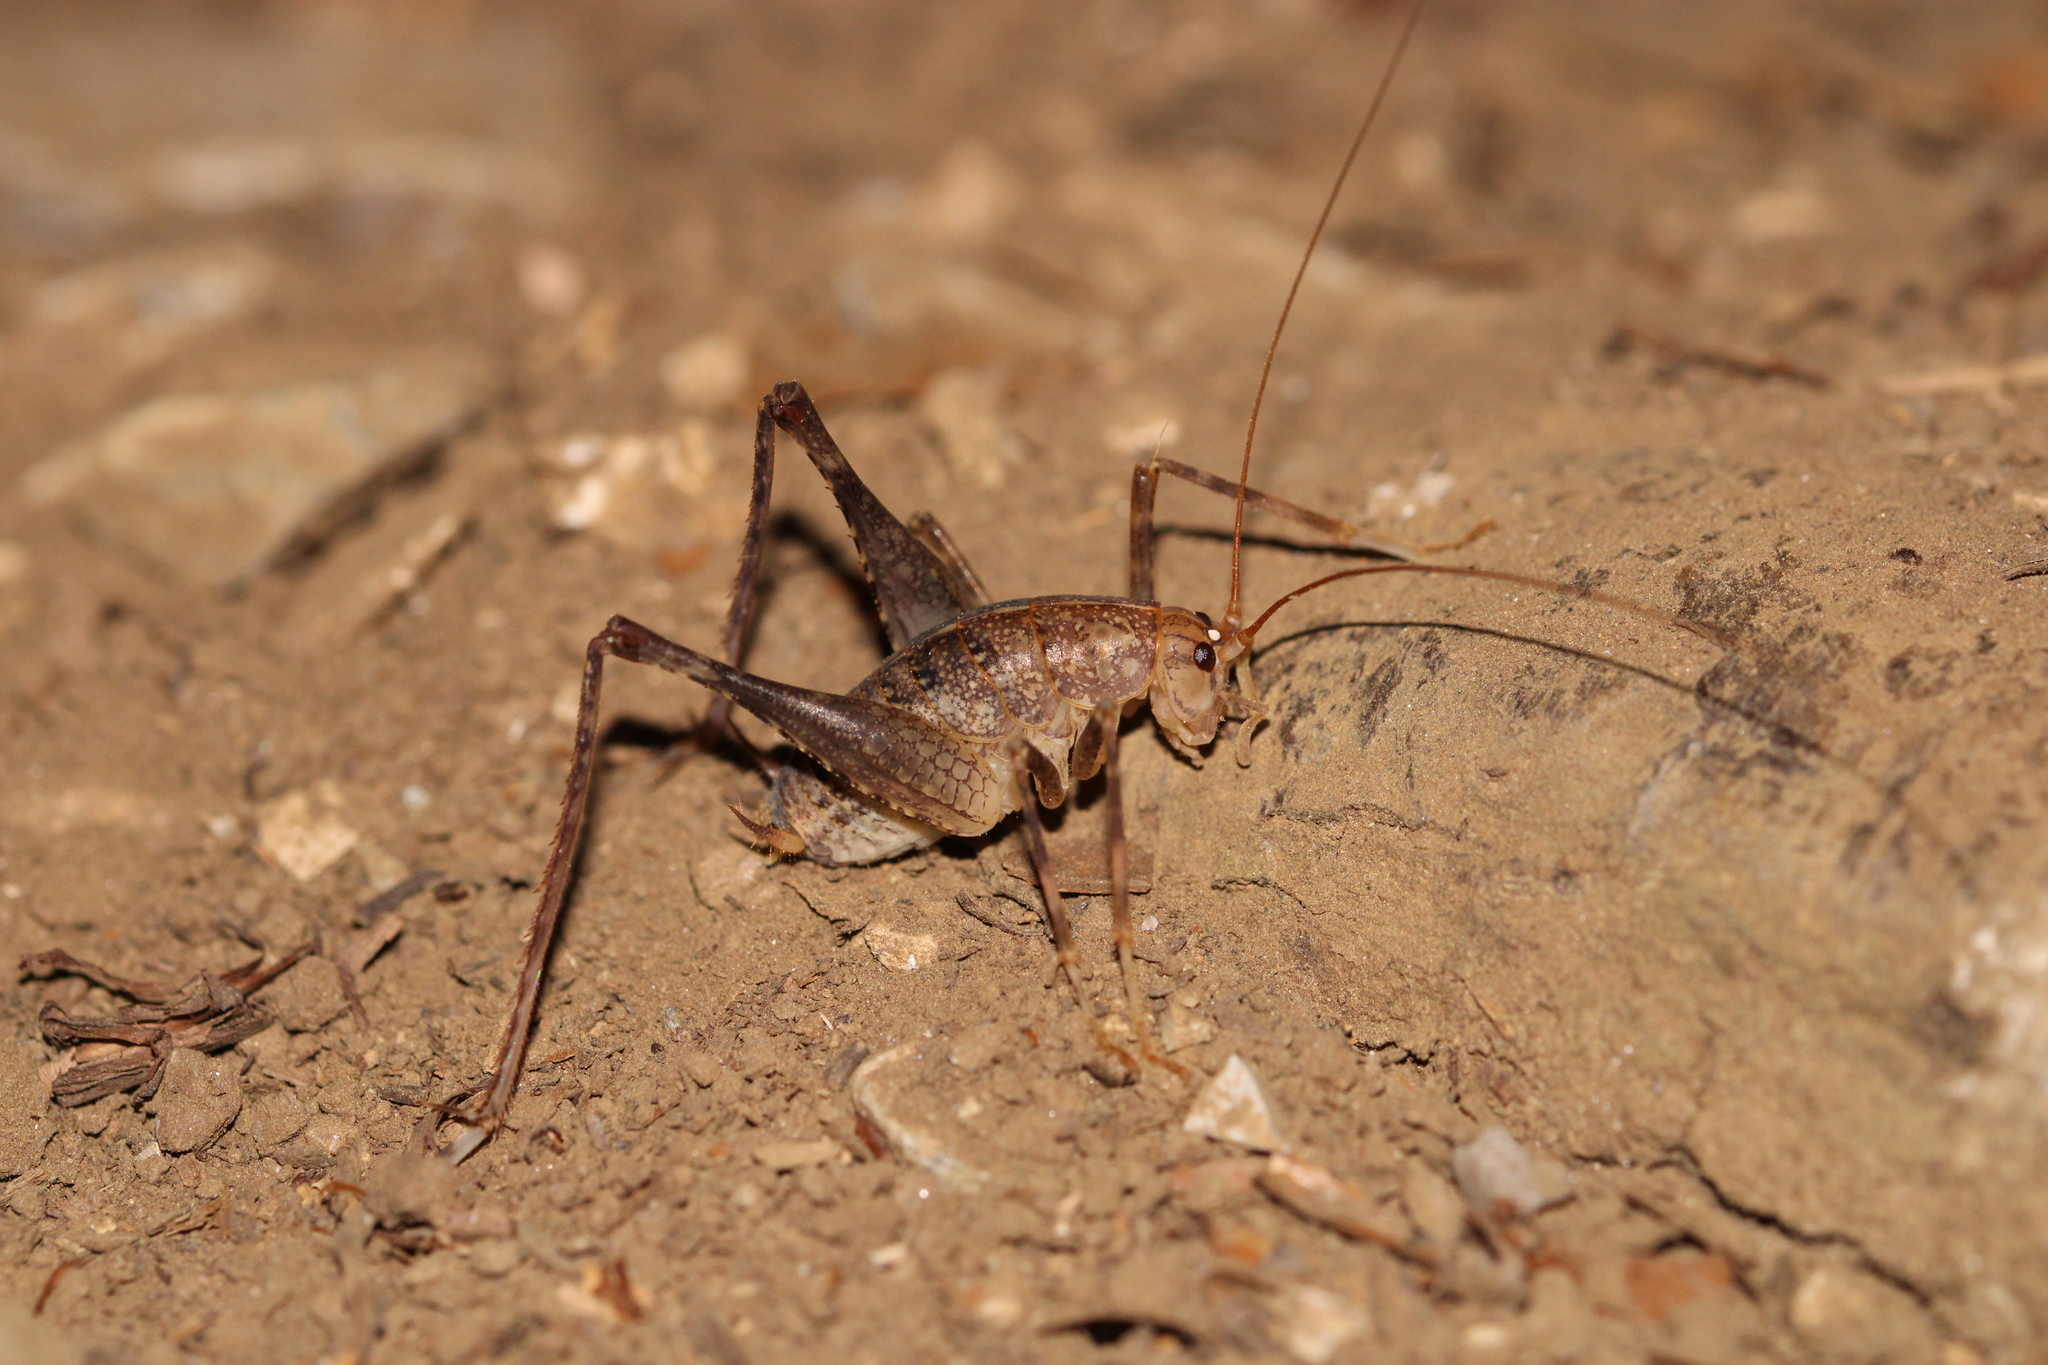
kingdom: Animalia
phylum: Arthropoda
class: Insecta
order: Orthoptera
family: Rhaphidophoridae
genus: Troglophilus
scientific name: Troglophilus cavicola
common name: Common cave-cricket
